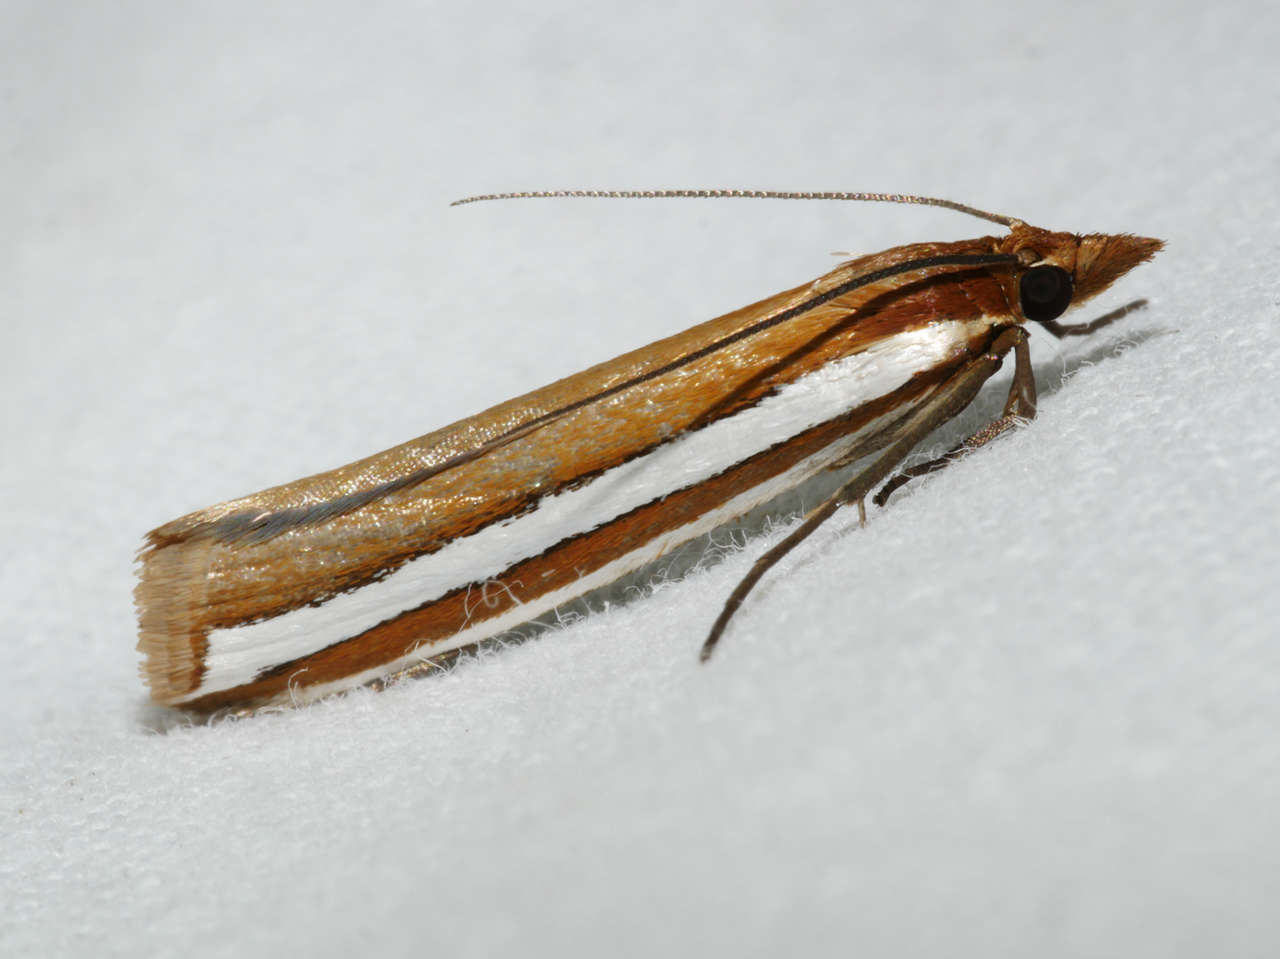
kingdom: Animalia
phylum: Arthropoda
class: Insecta
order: Lepidoptera
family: Crambidae
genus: Corynophora
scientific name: Corynophora lativittalis
